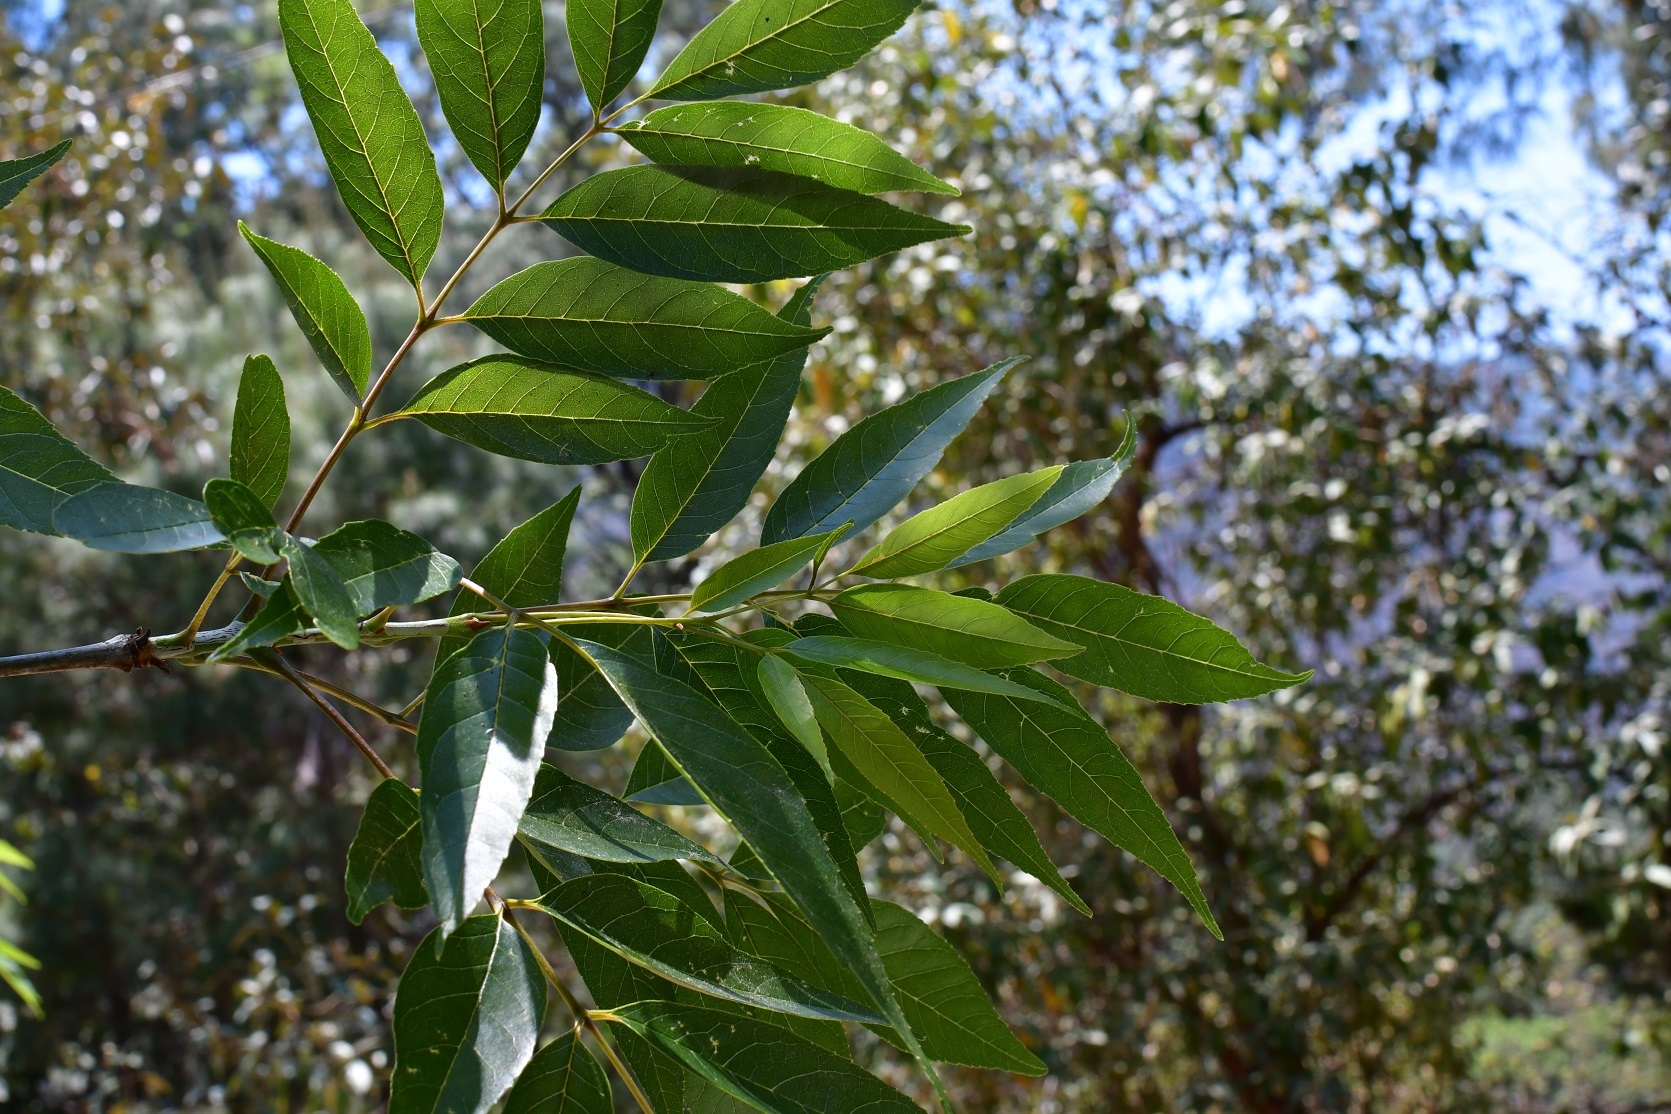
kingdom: Plantae
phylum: Tracheophyta
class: Magnoliopsida
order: Lamiales
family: Oleaceae
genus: Fraxinus
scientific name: Fraxinus velutina
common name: Arizon ash
